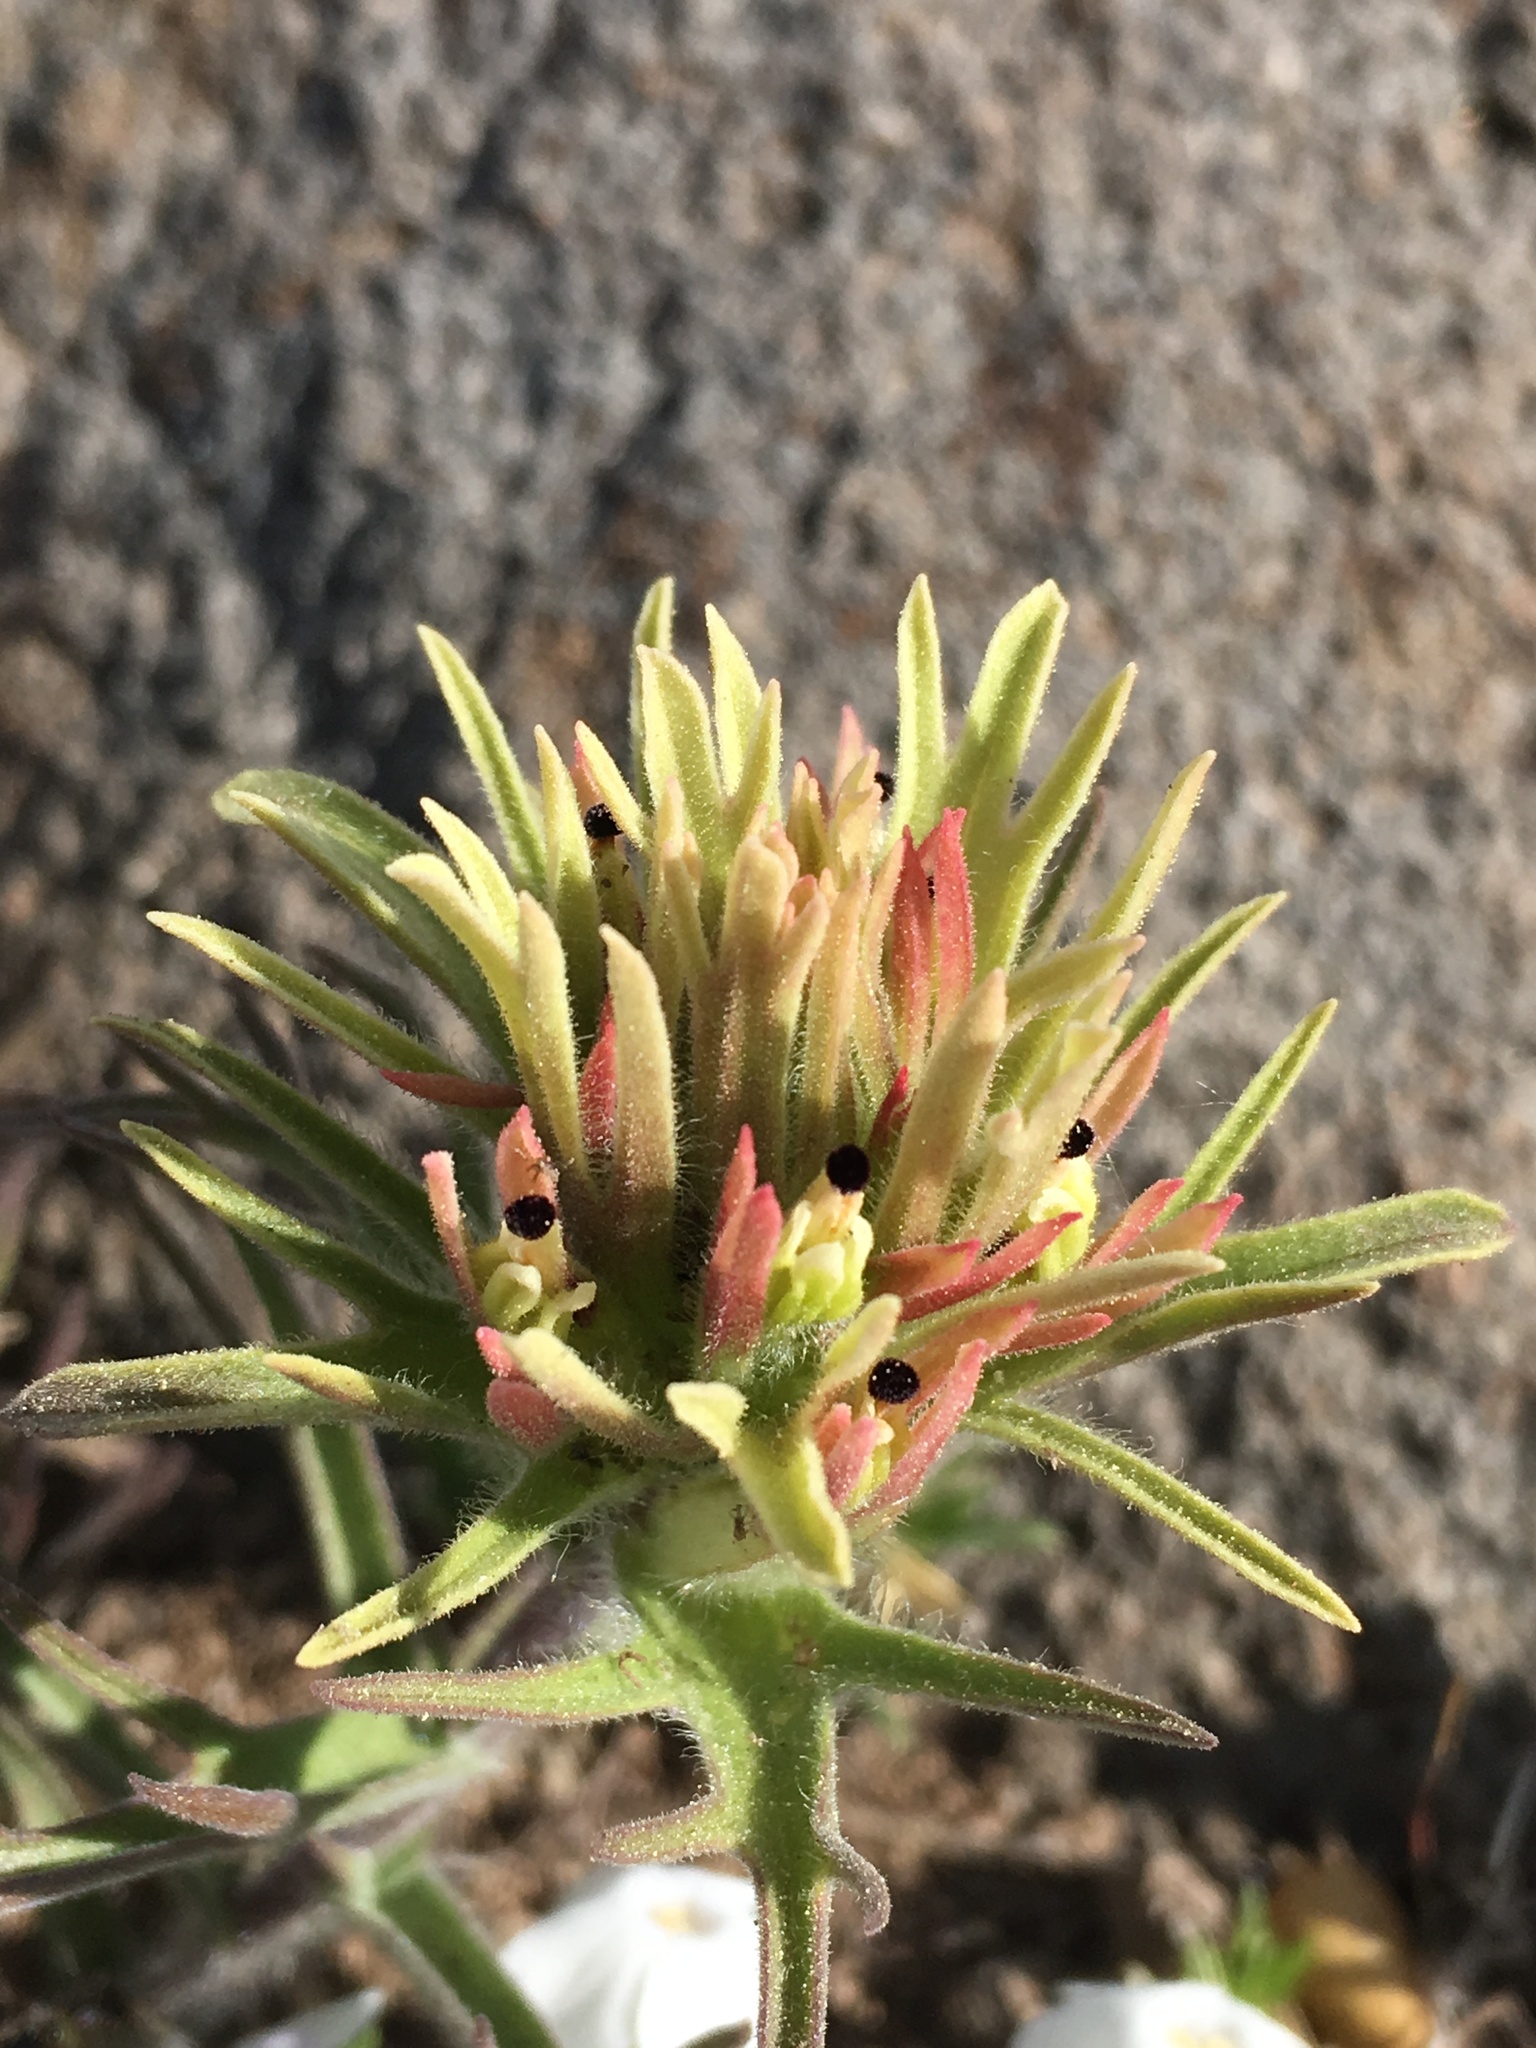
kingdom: Plantae
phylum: Tracheophyta
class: Magnoliopsida
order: Lamiales
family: Orobanchaceae
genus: Castilleja
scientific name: Castilleja nana
